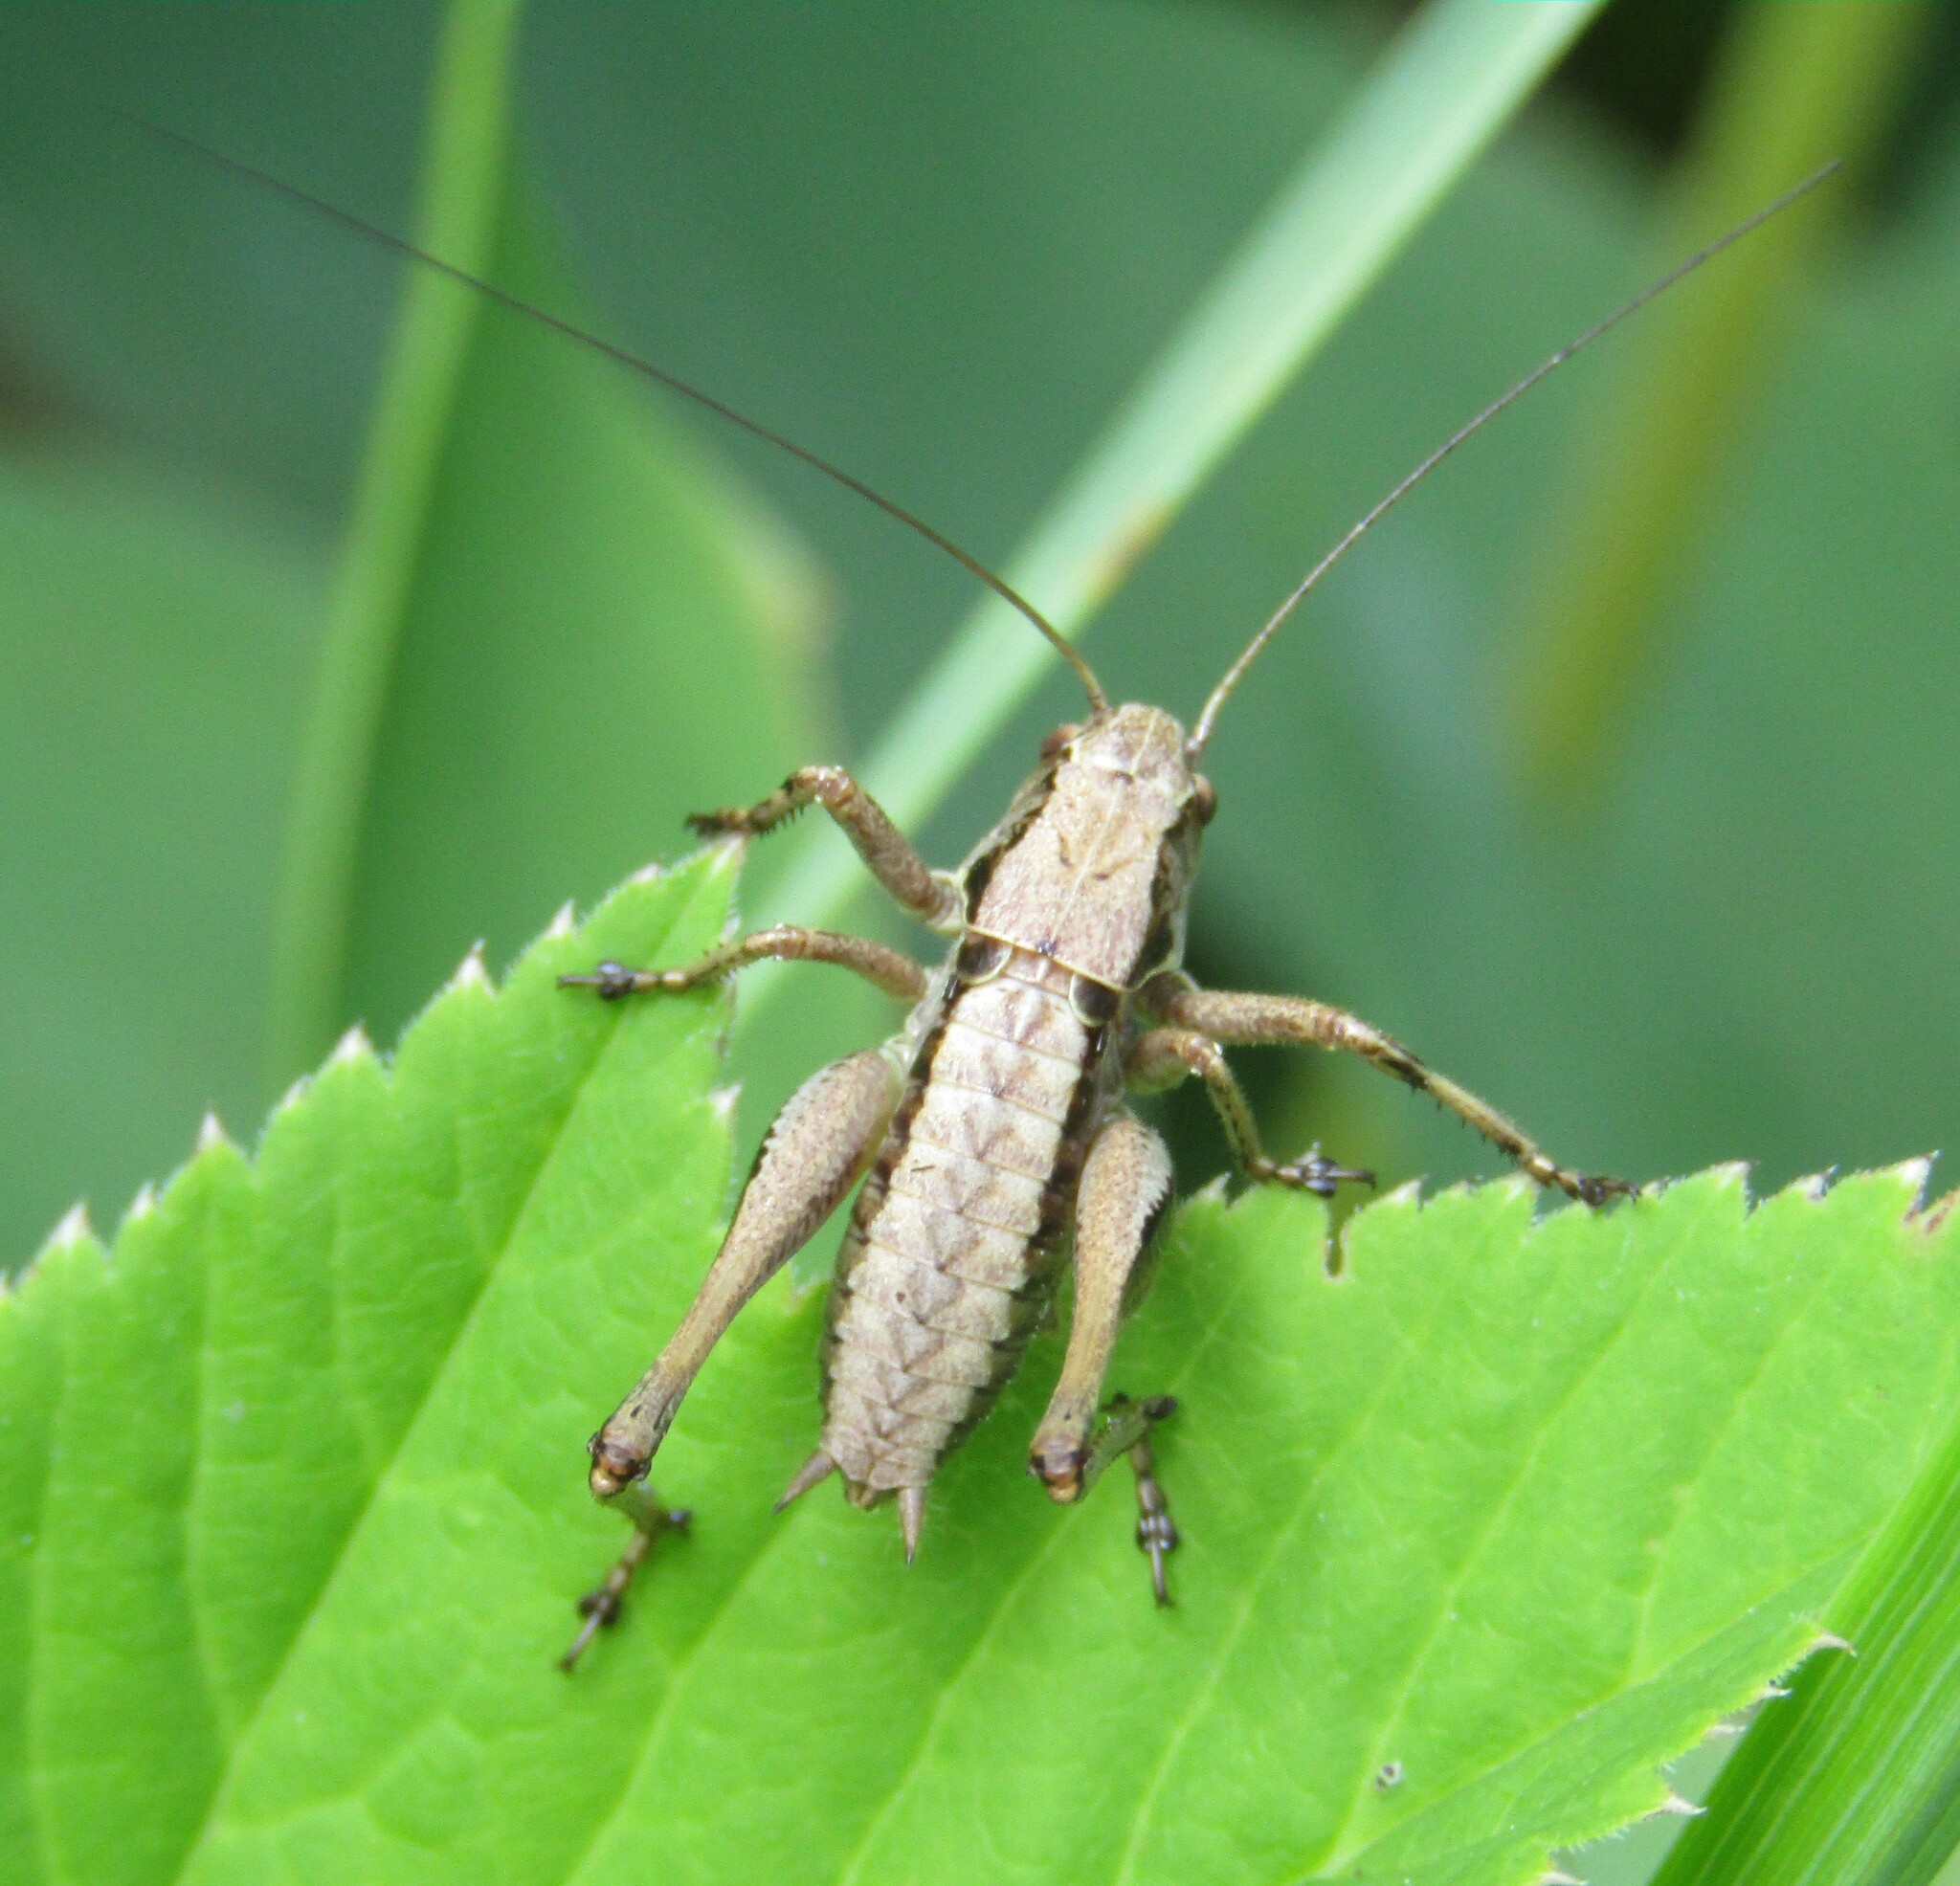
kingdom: Animalia
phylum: Arthropoda
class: Insecta
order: Orthoptera
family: Tettigoniidae
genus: Pholidoptera
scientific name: Pholidoptera griseoaptera
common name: Dark bush-cricket
